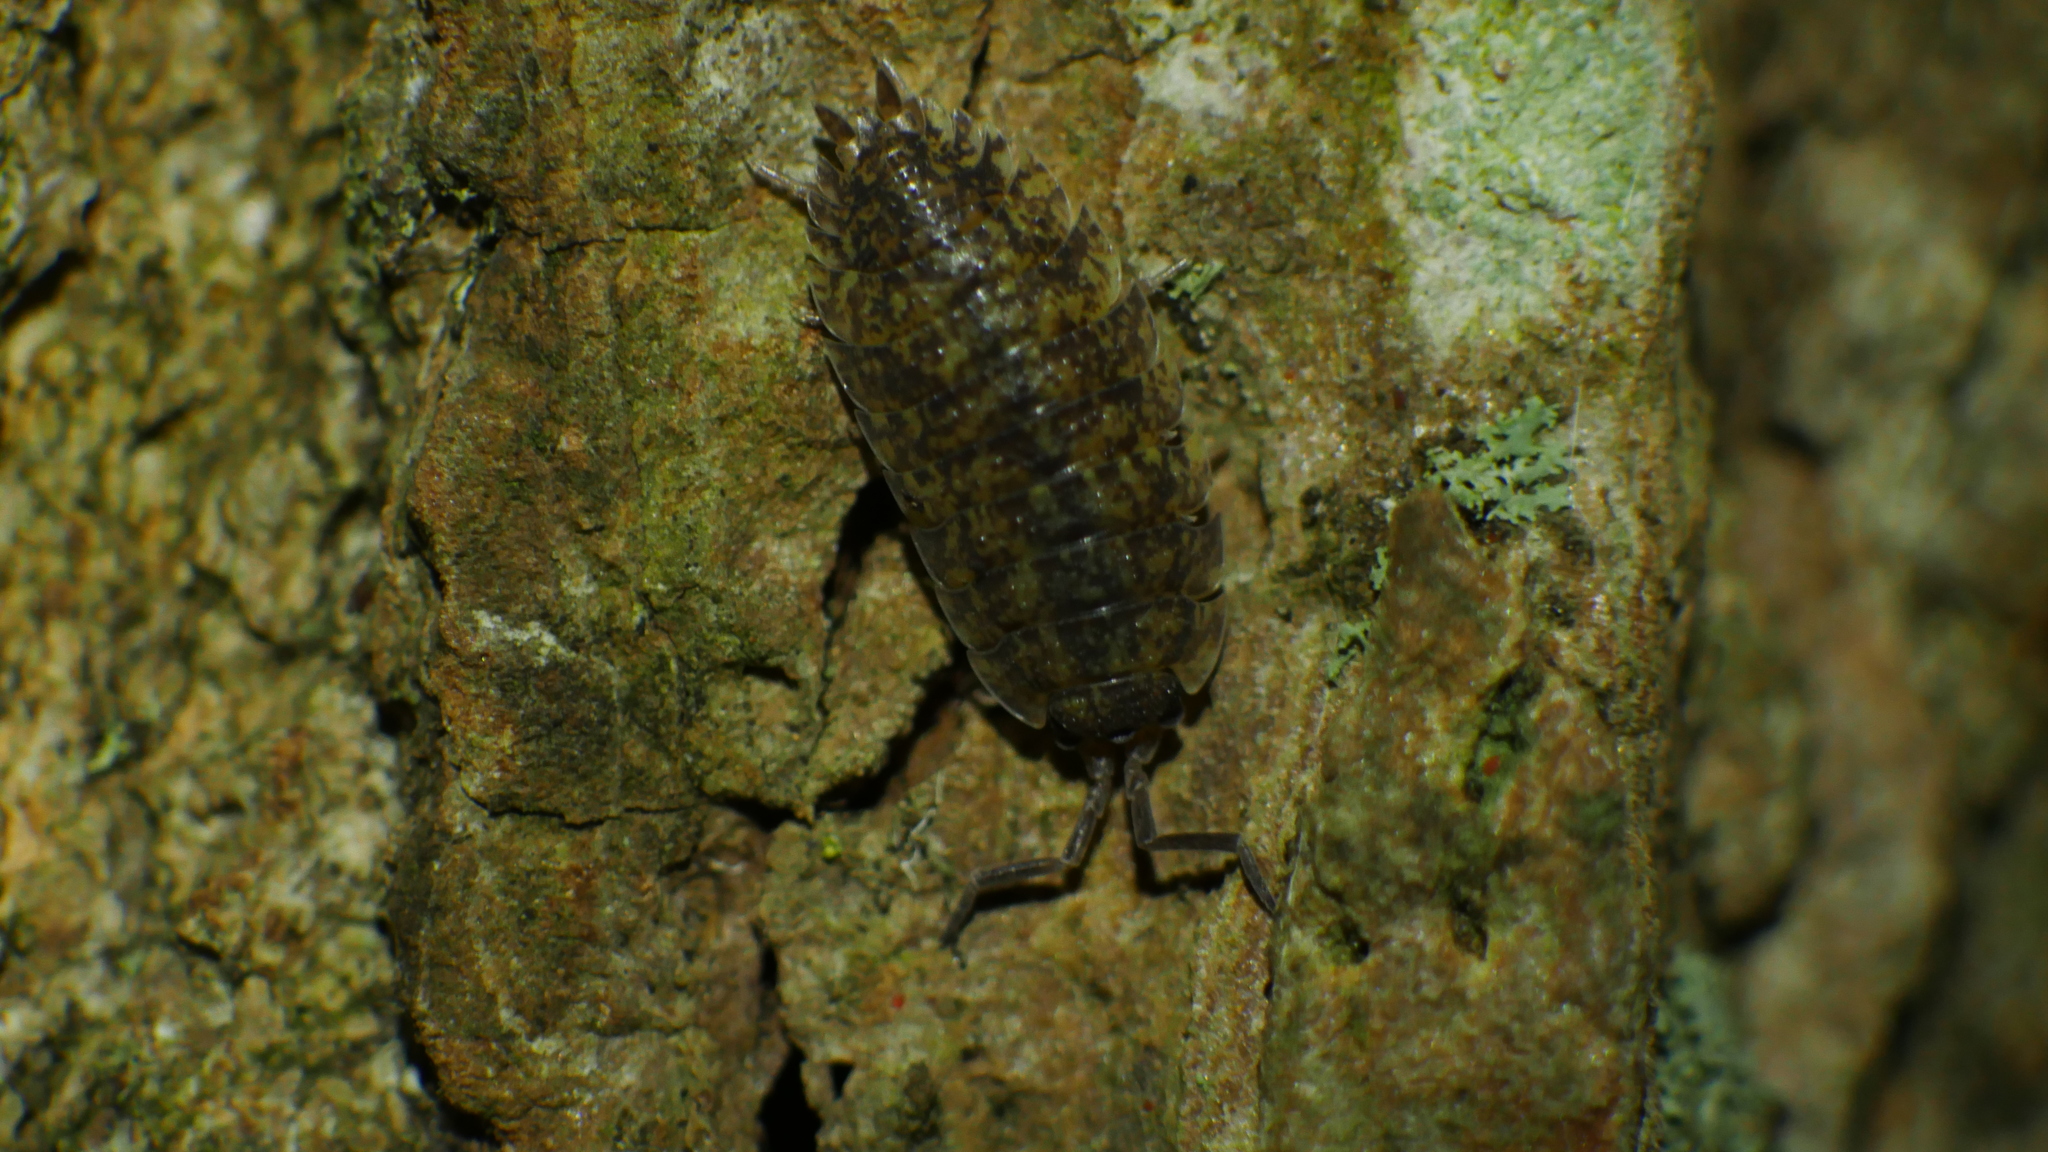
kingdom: Animalia
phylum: Arthropoda
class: Malacostraca
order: Isopoda
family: Porcellionidae
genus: Porcellio
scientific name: Porcellio scaber
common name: Common rough woodlouse
